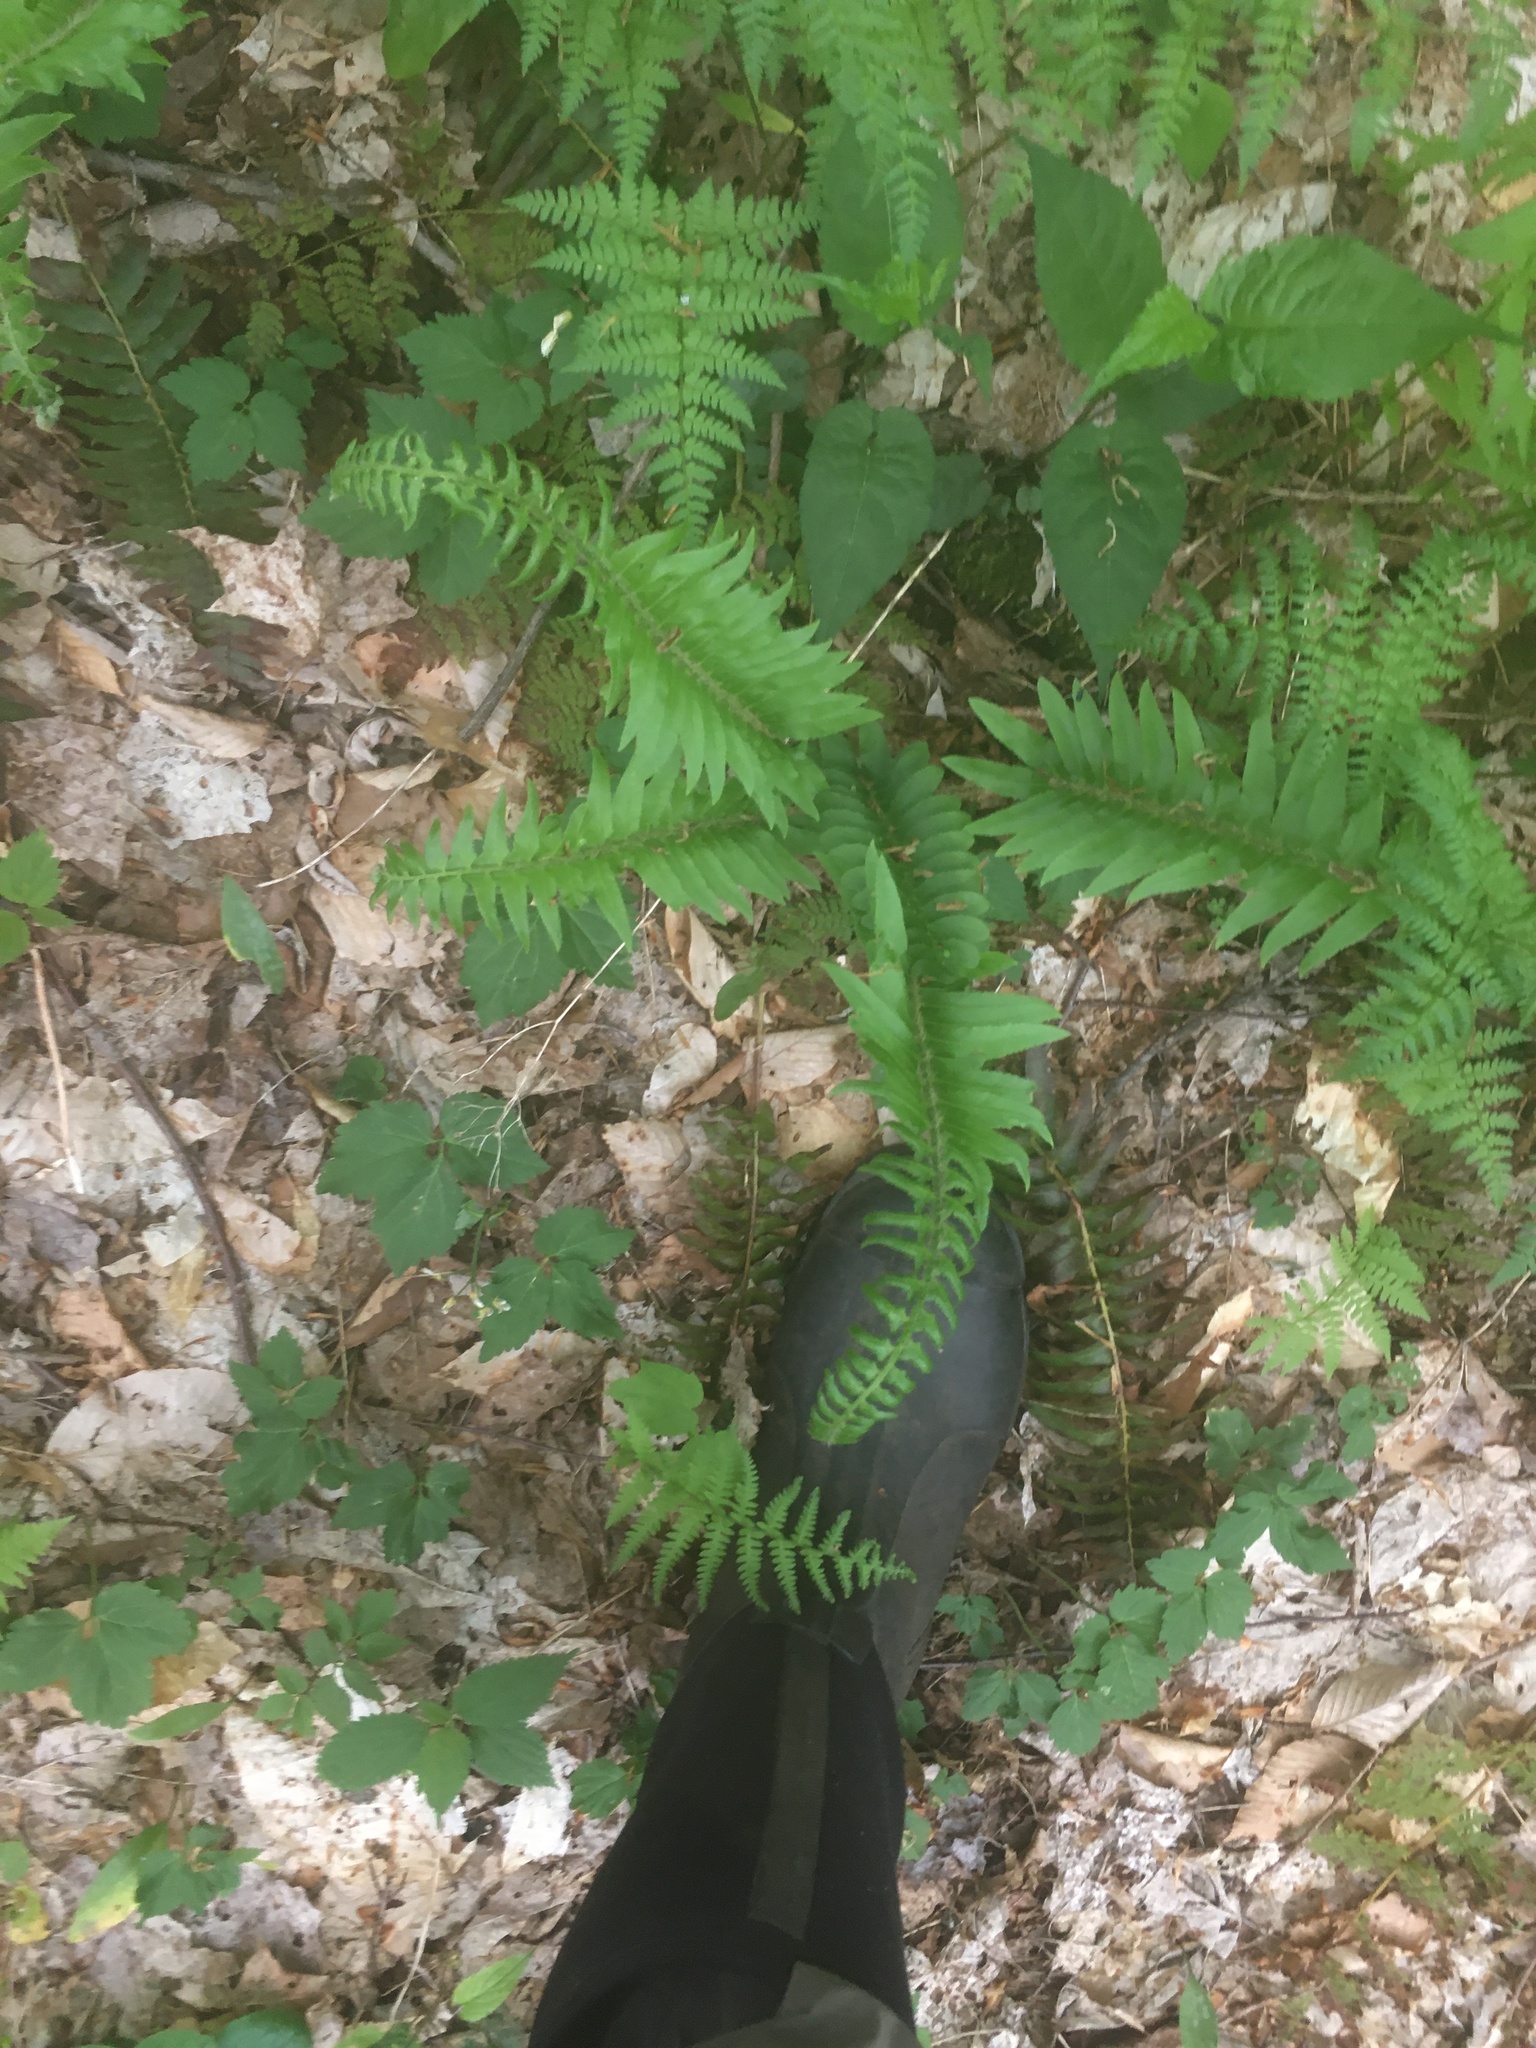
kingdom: Plantae
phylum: Tracheophyta
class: Polypodiopsida
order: Polypodiales
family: Dryopteridaceae
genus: Polystichum
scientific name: Polystichum acrostichoides
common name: Christmas fern
